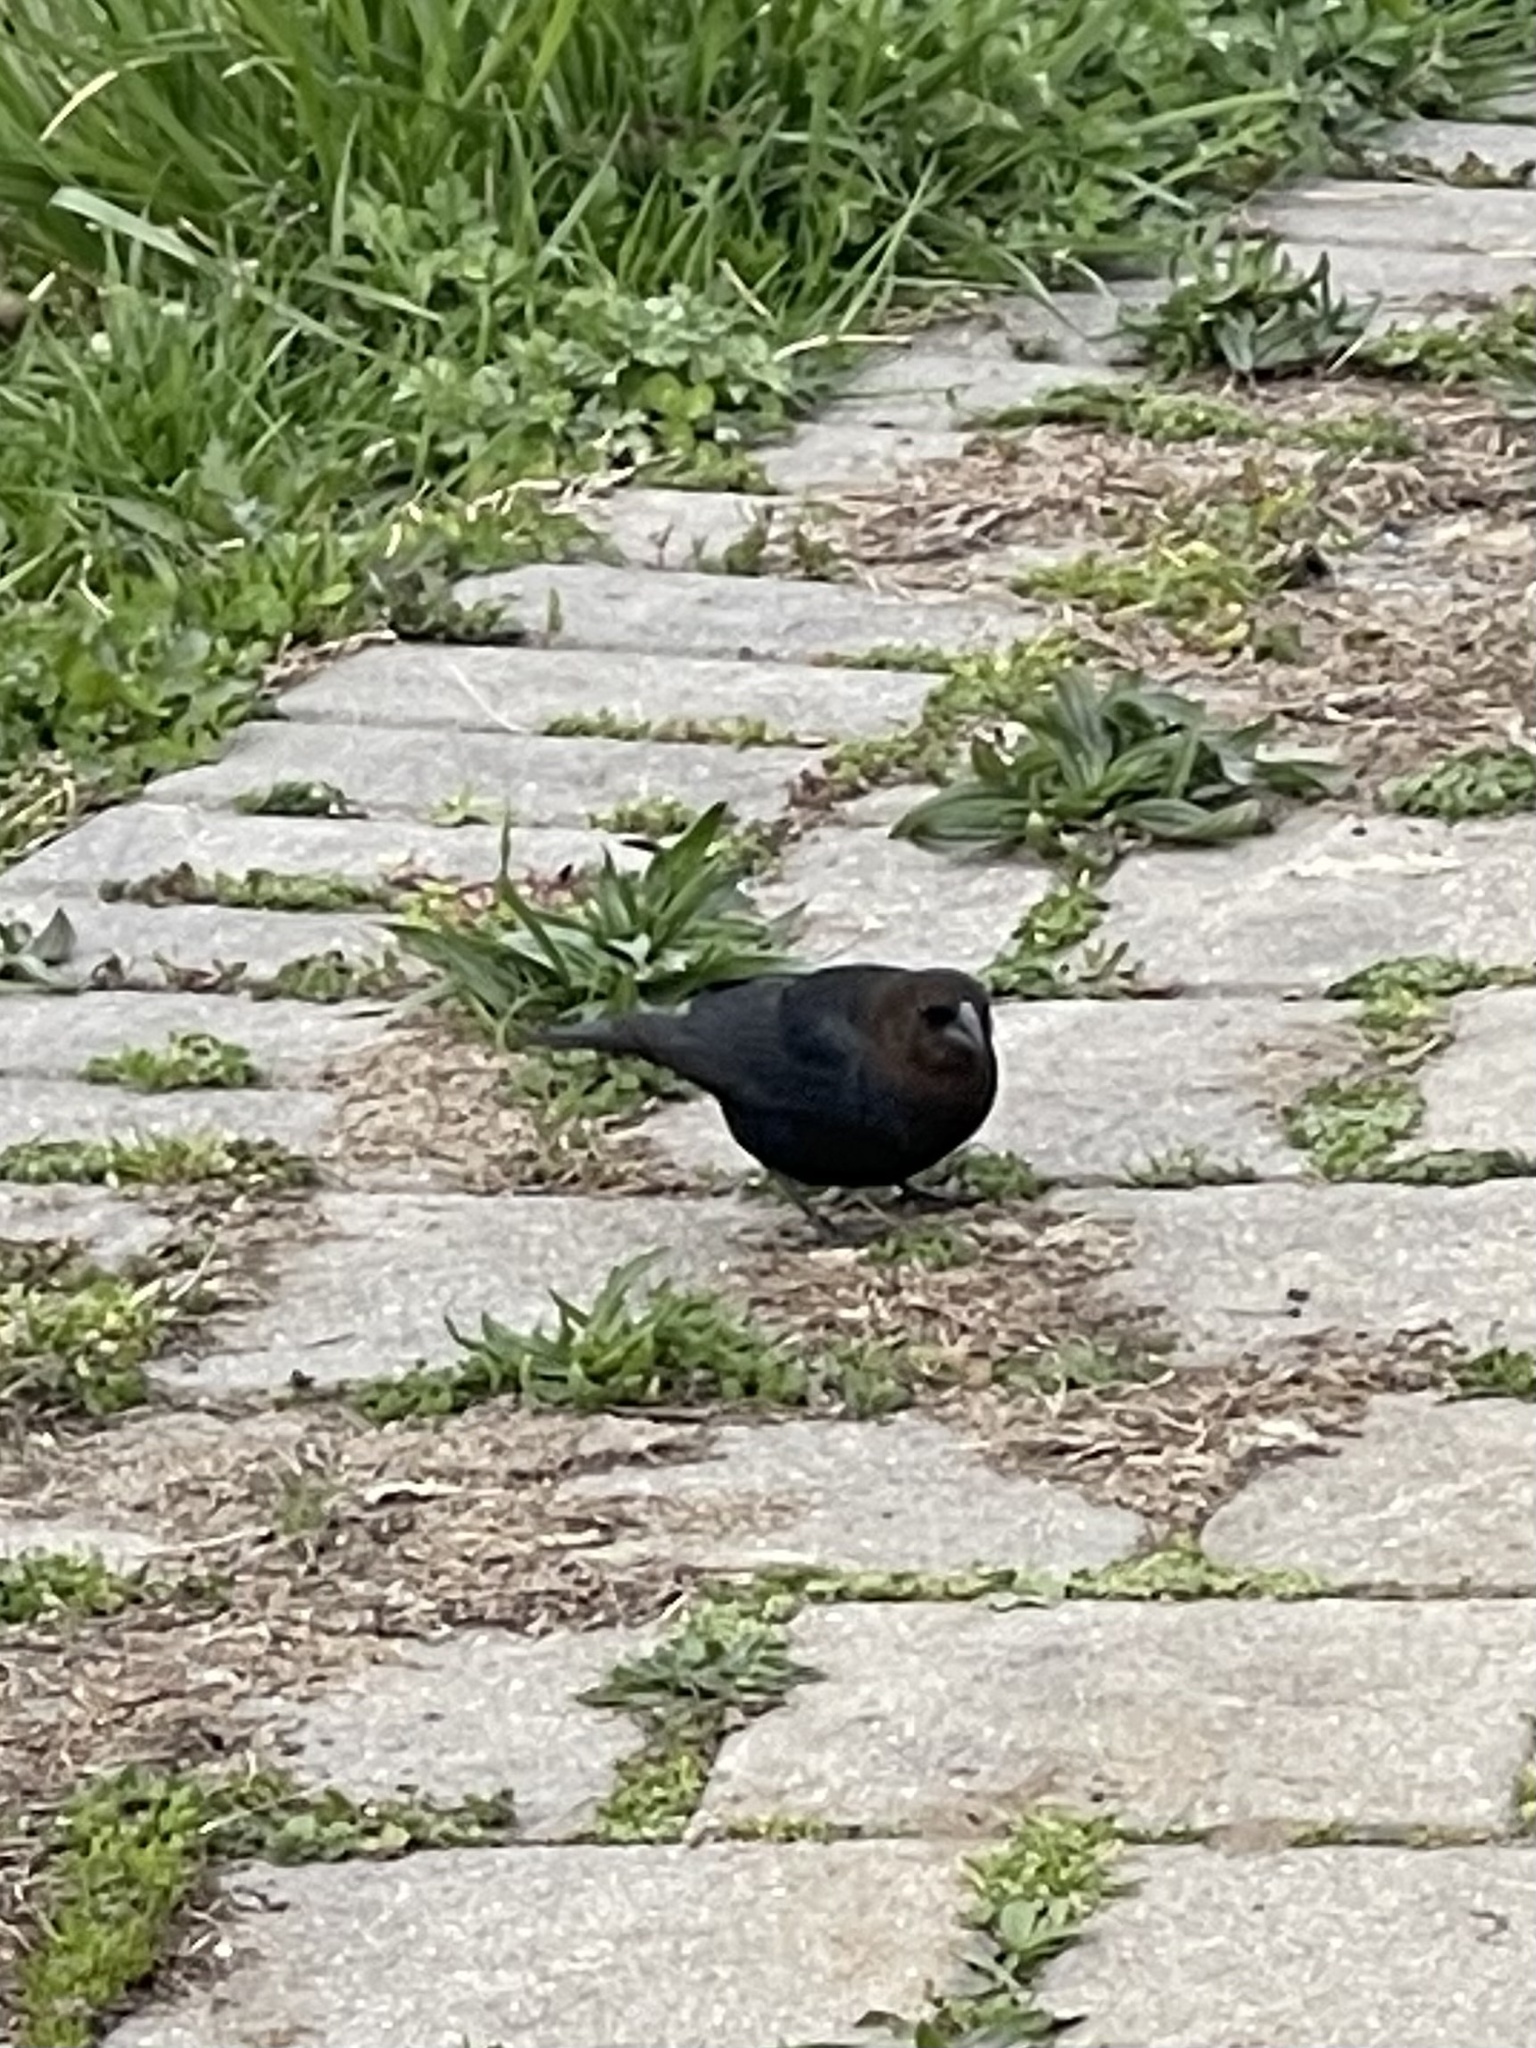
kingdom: Animalia
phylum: Chordata
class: Aves
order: Passeriformes
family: Icteridae
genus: Molothrus
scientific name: Molothrus ater
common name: Brown-headed cowbird
